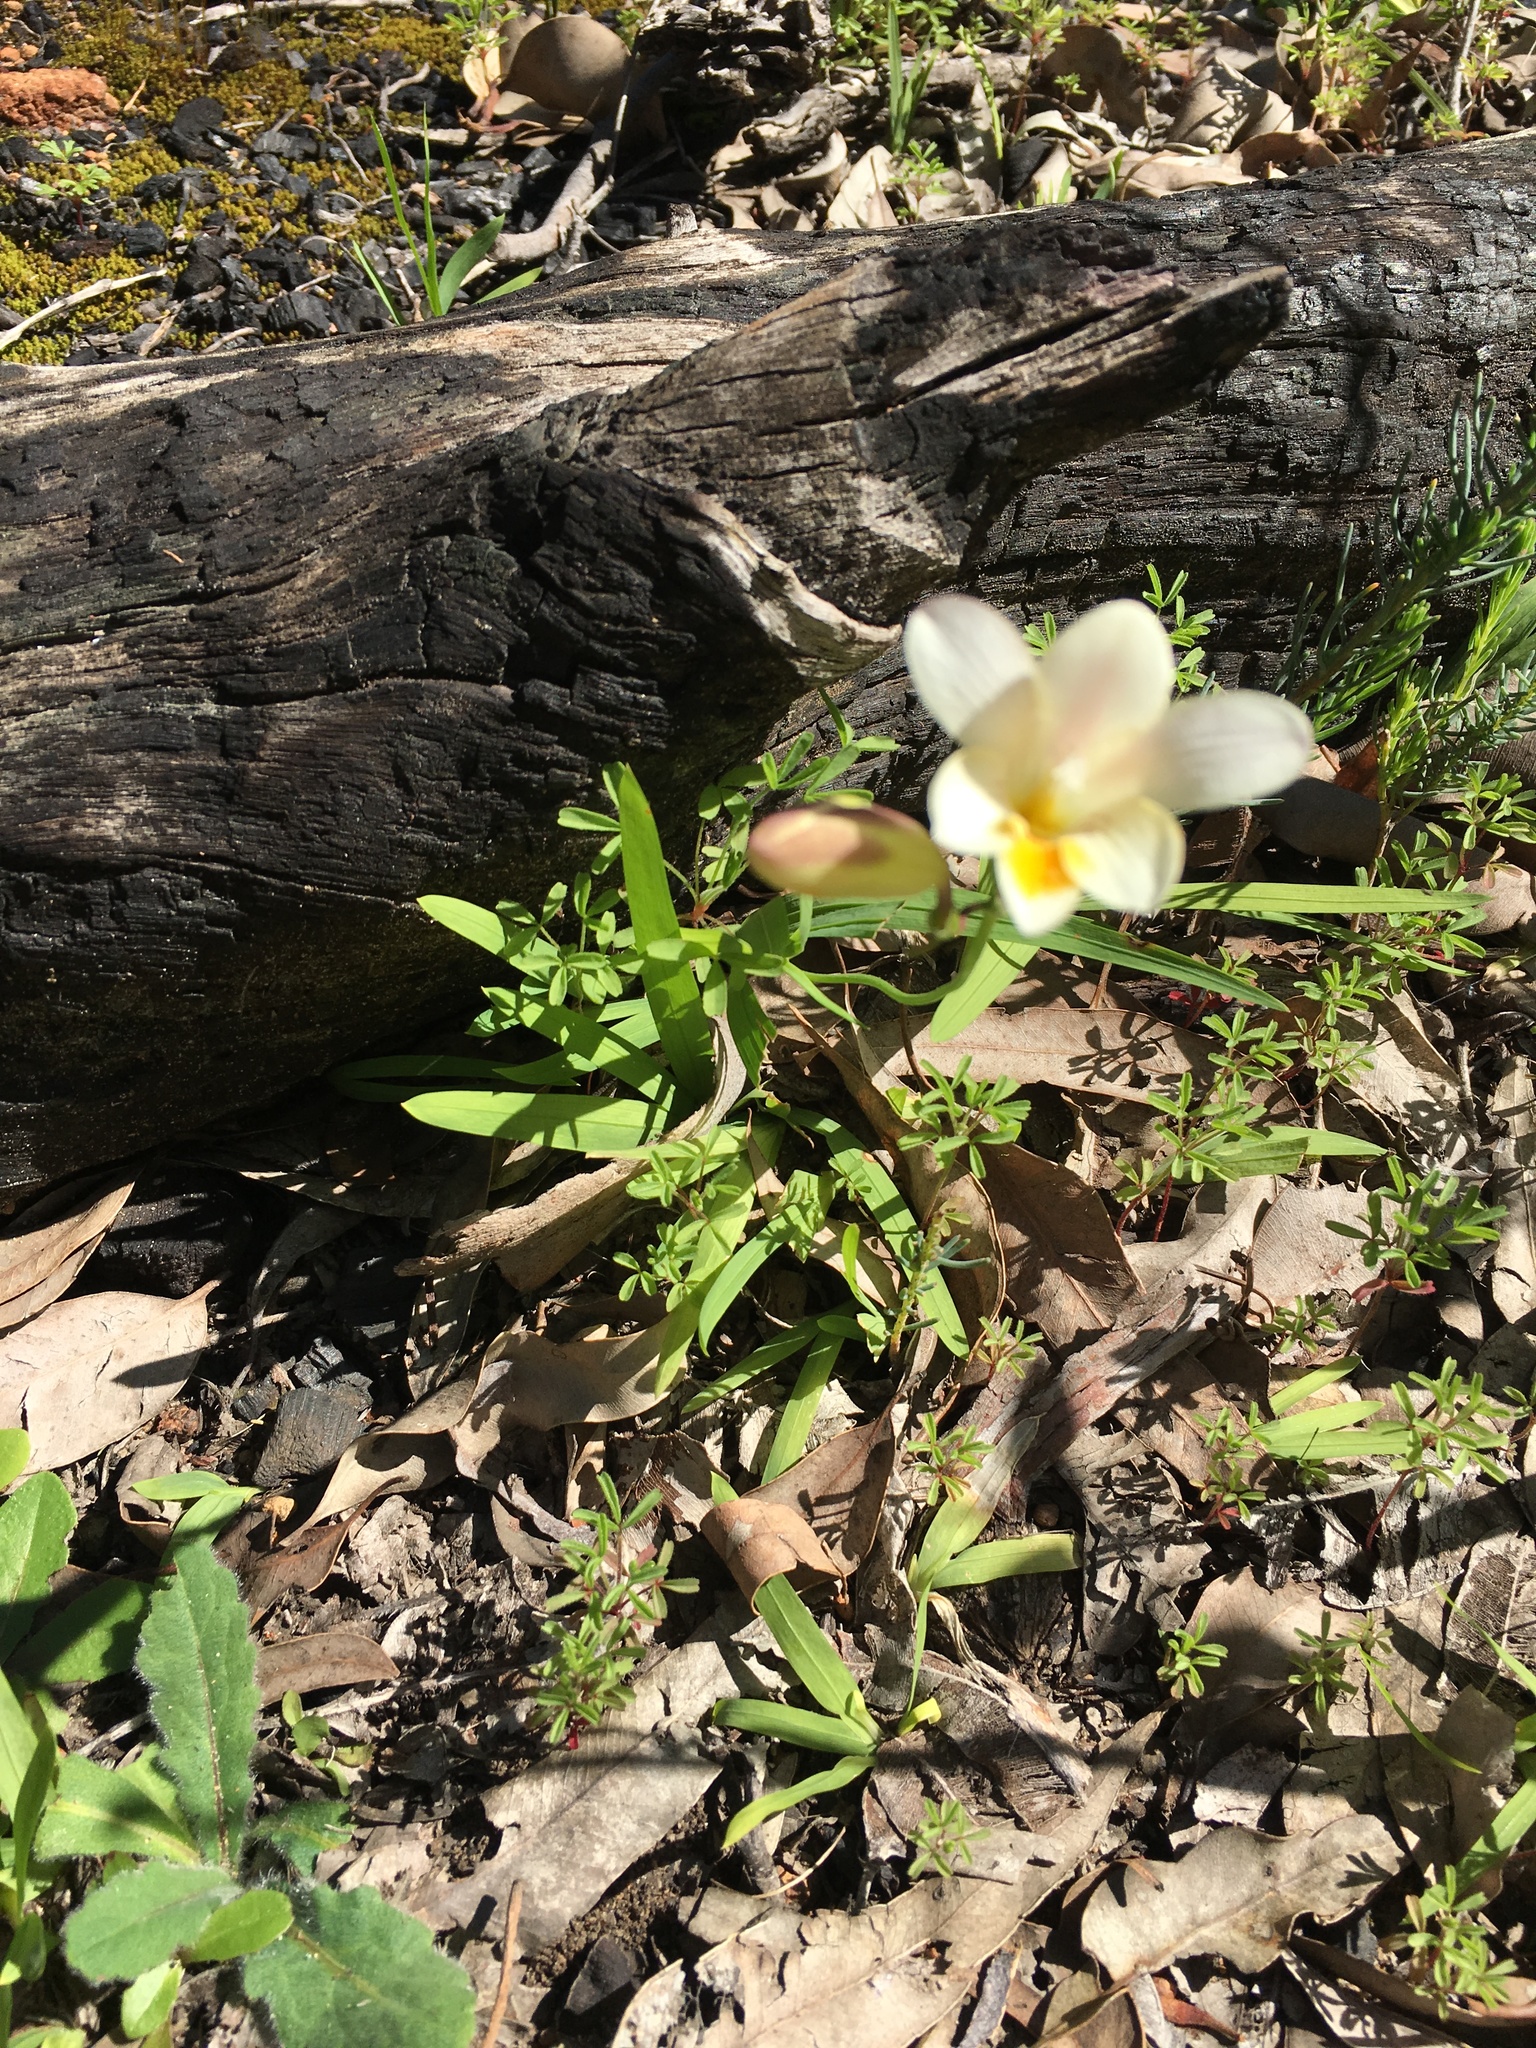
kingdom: Plantae
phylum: Tracheophyta
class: Liliopsida
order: Asparagales
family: Iridaceae
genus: Freesia
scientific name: Freesia leichtlinii
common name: Freesia
